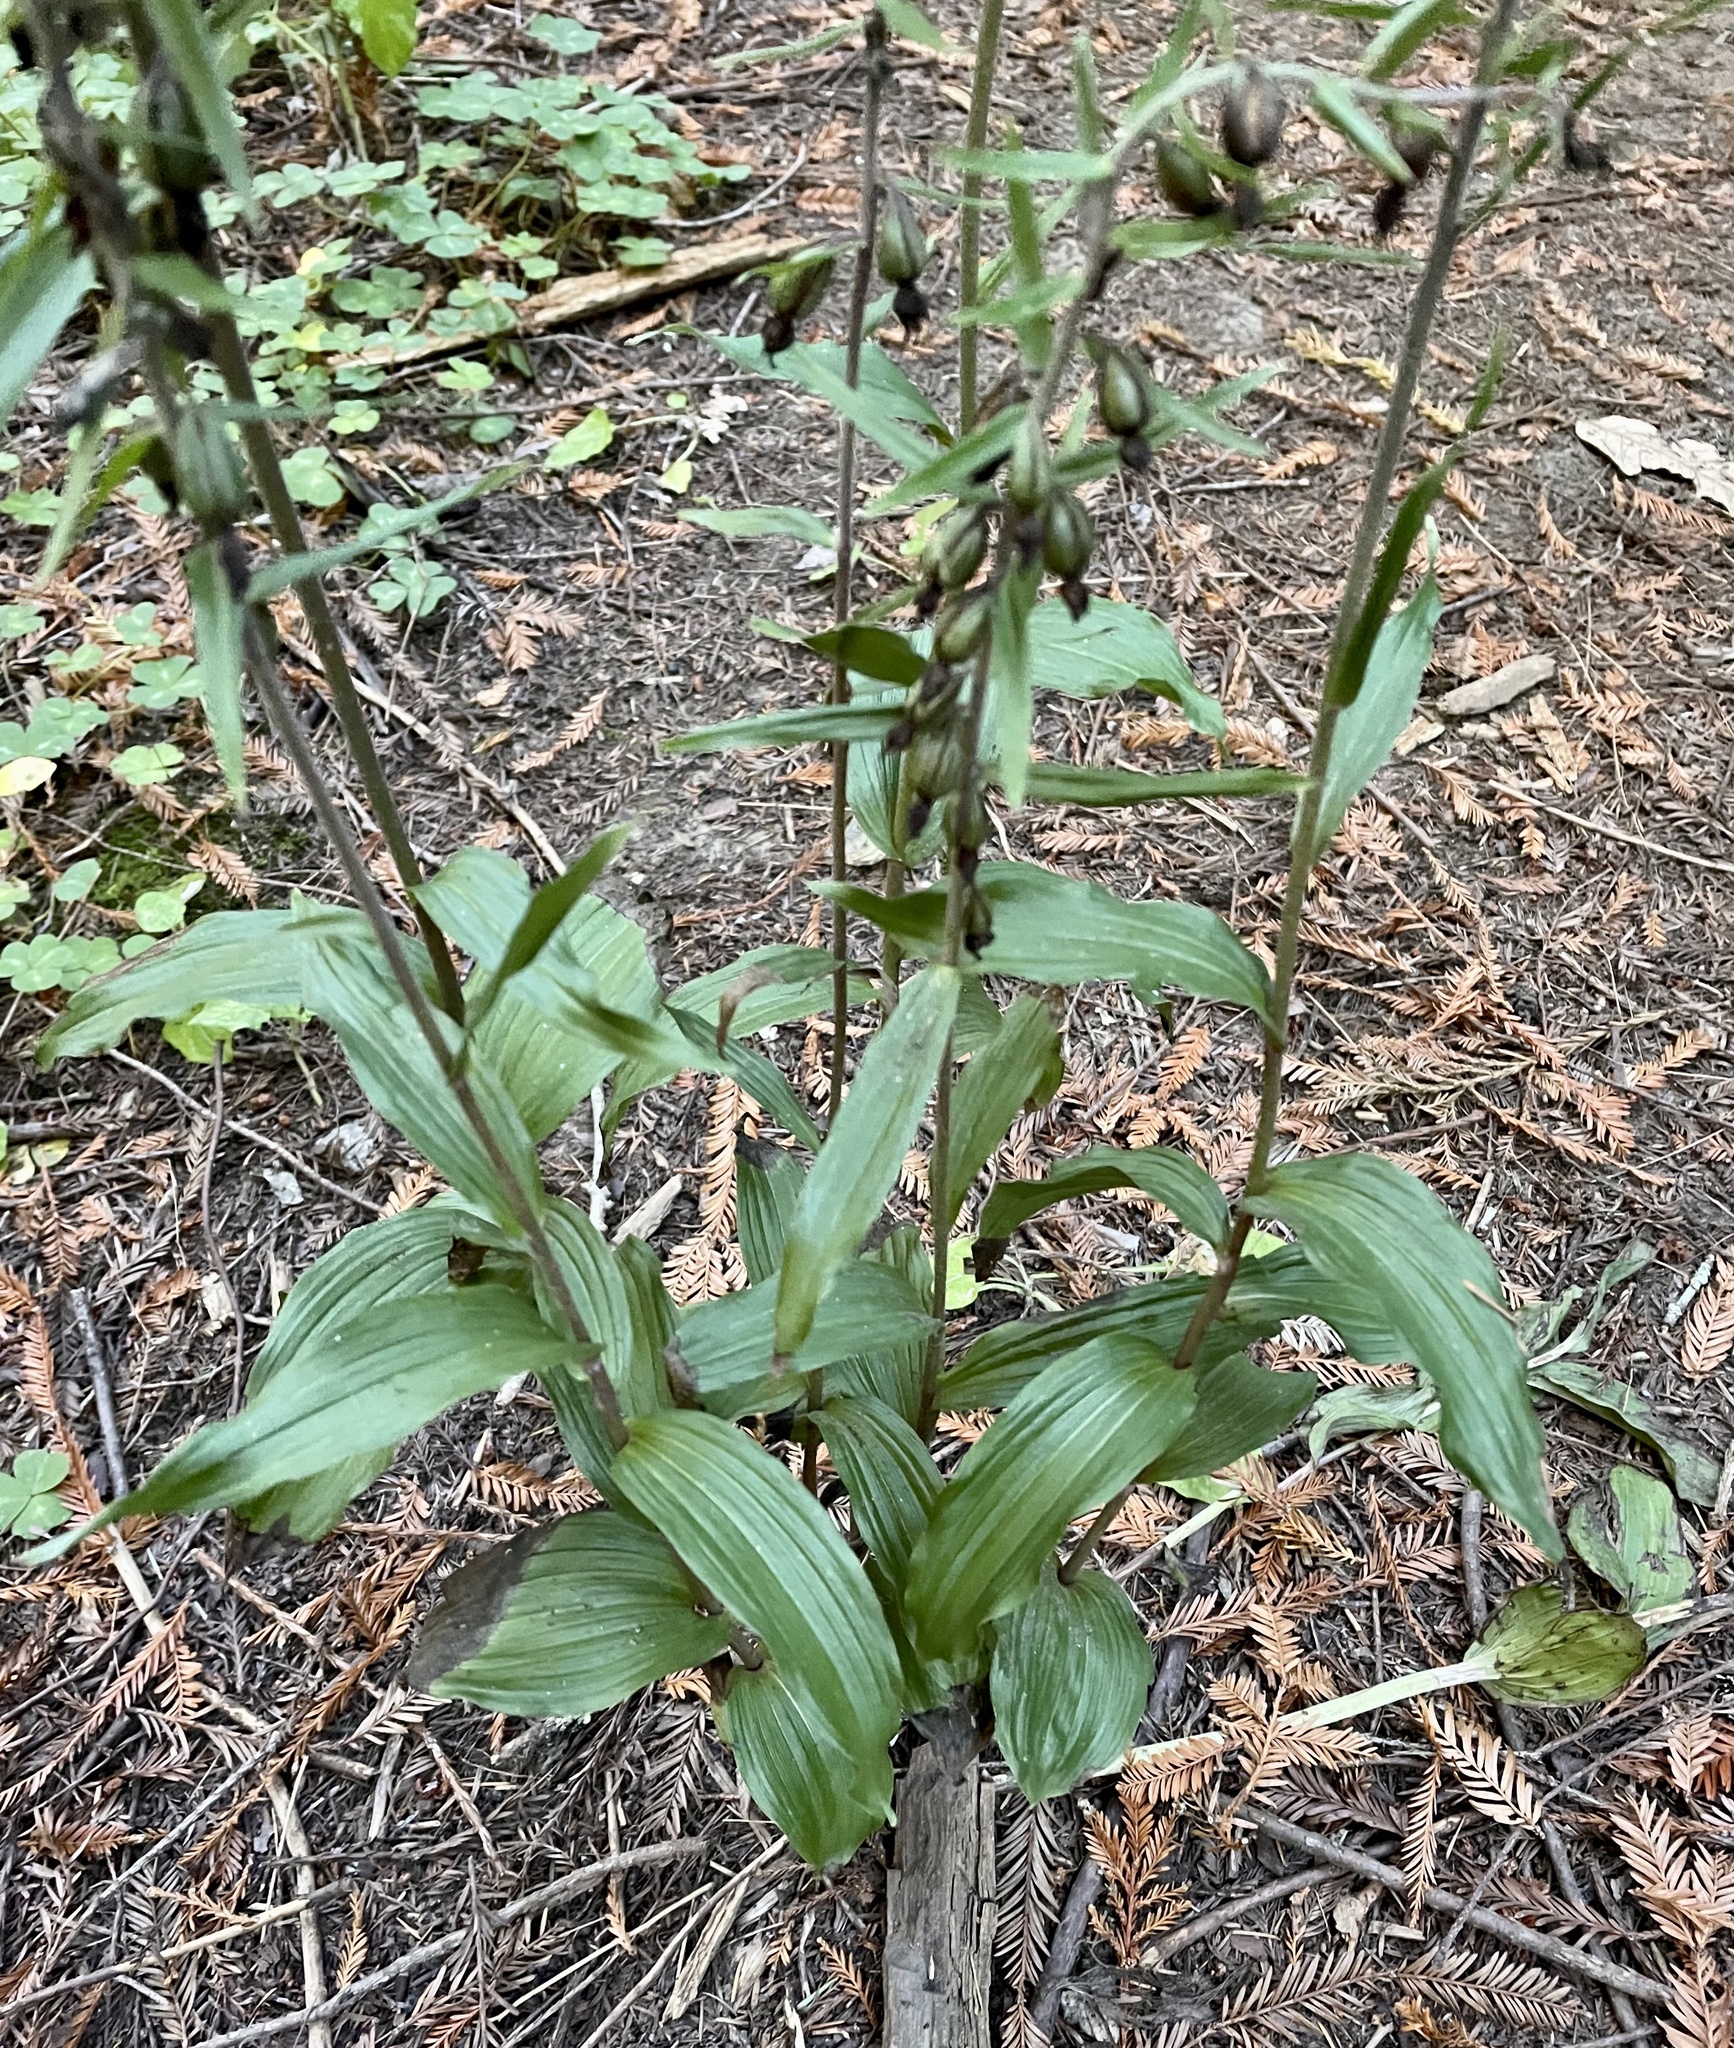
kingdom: Plantae
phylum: Tracheophyta
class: Liliopsida
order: Asparagales
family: Orchidaceae
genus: Epipactis
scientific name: Epipactis helleborine
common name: Broad-leaved helleborine
